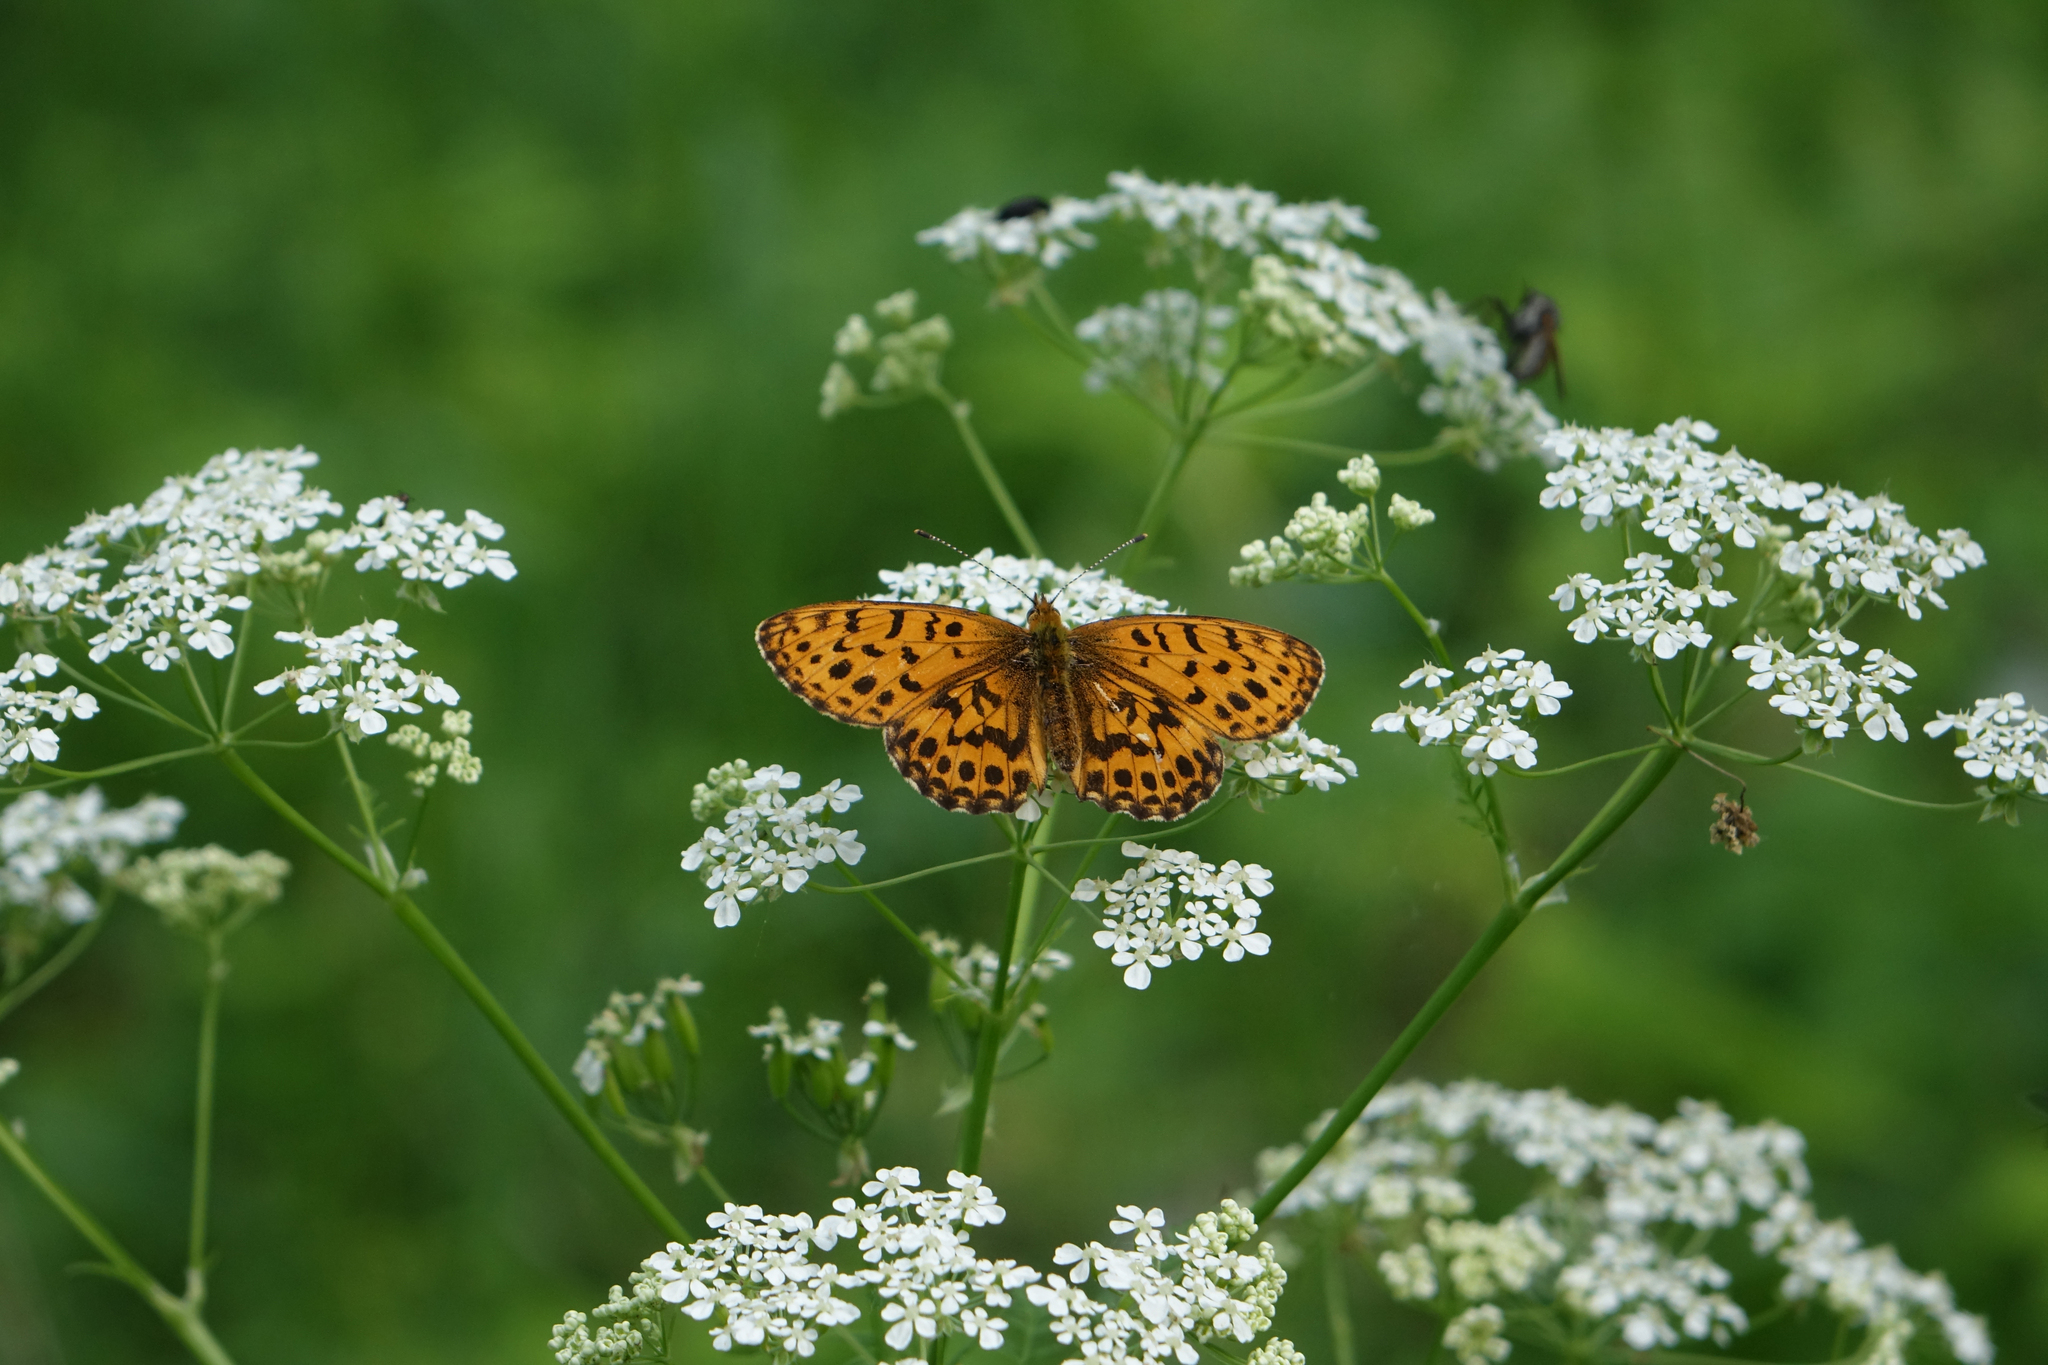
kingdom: Animalia
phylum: Arthropoda
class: Insecta
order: Lepidoptera
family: Nymphalidae
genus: Boloria
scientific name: Boloria thore
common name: Thor's fritillary
